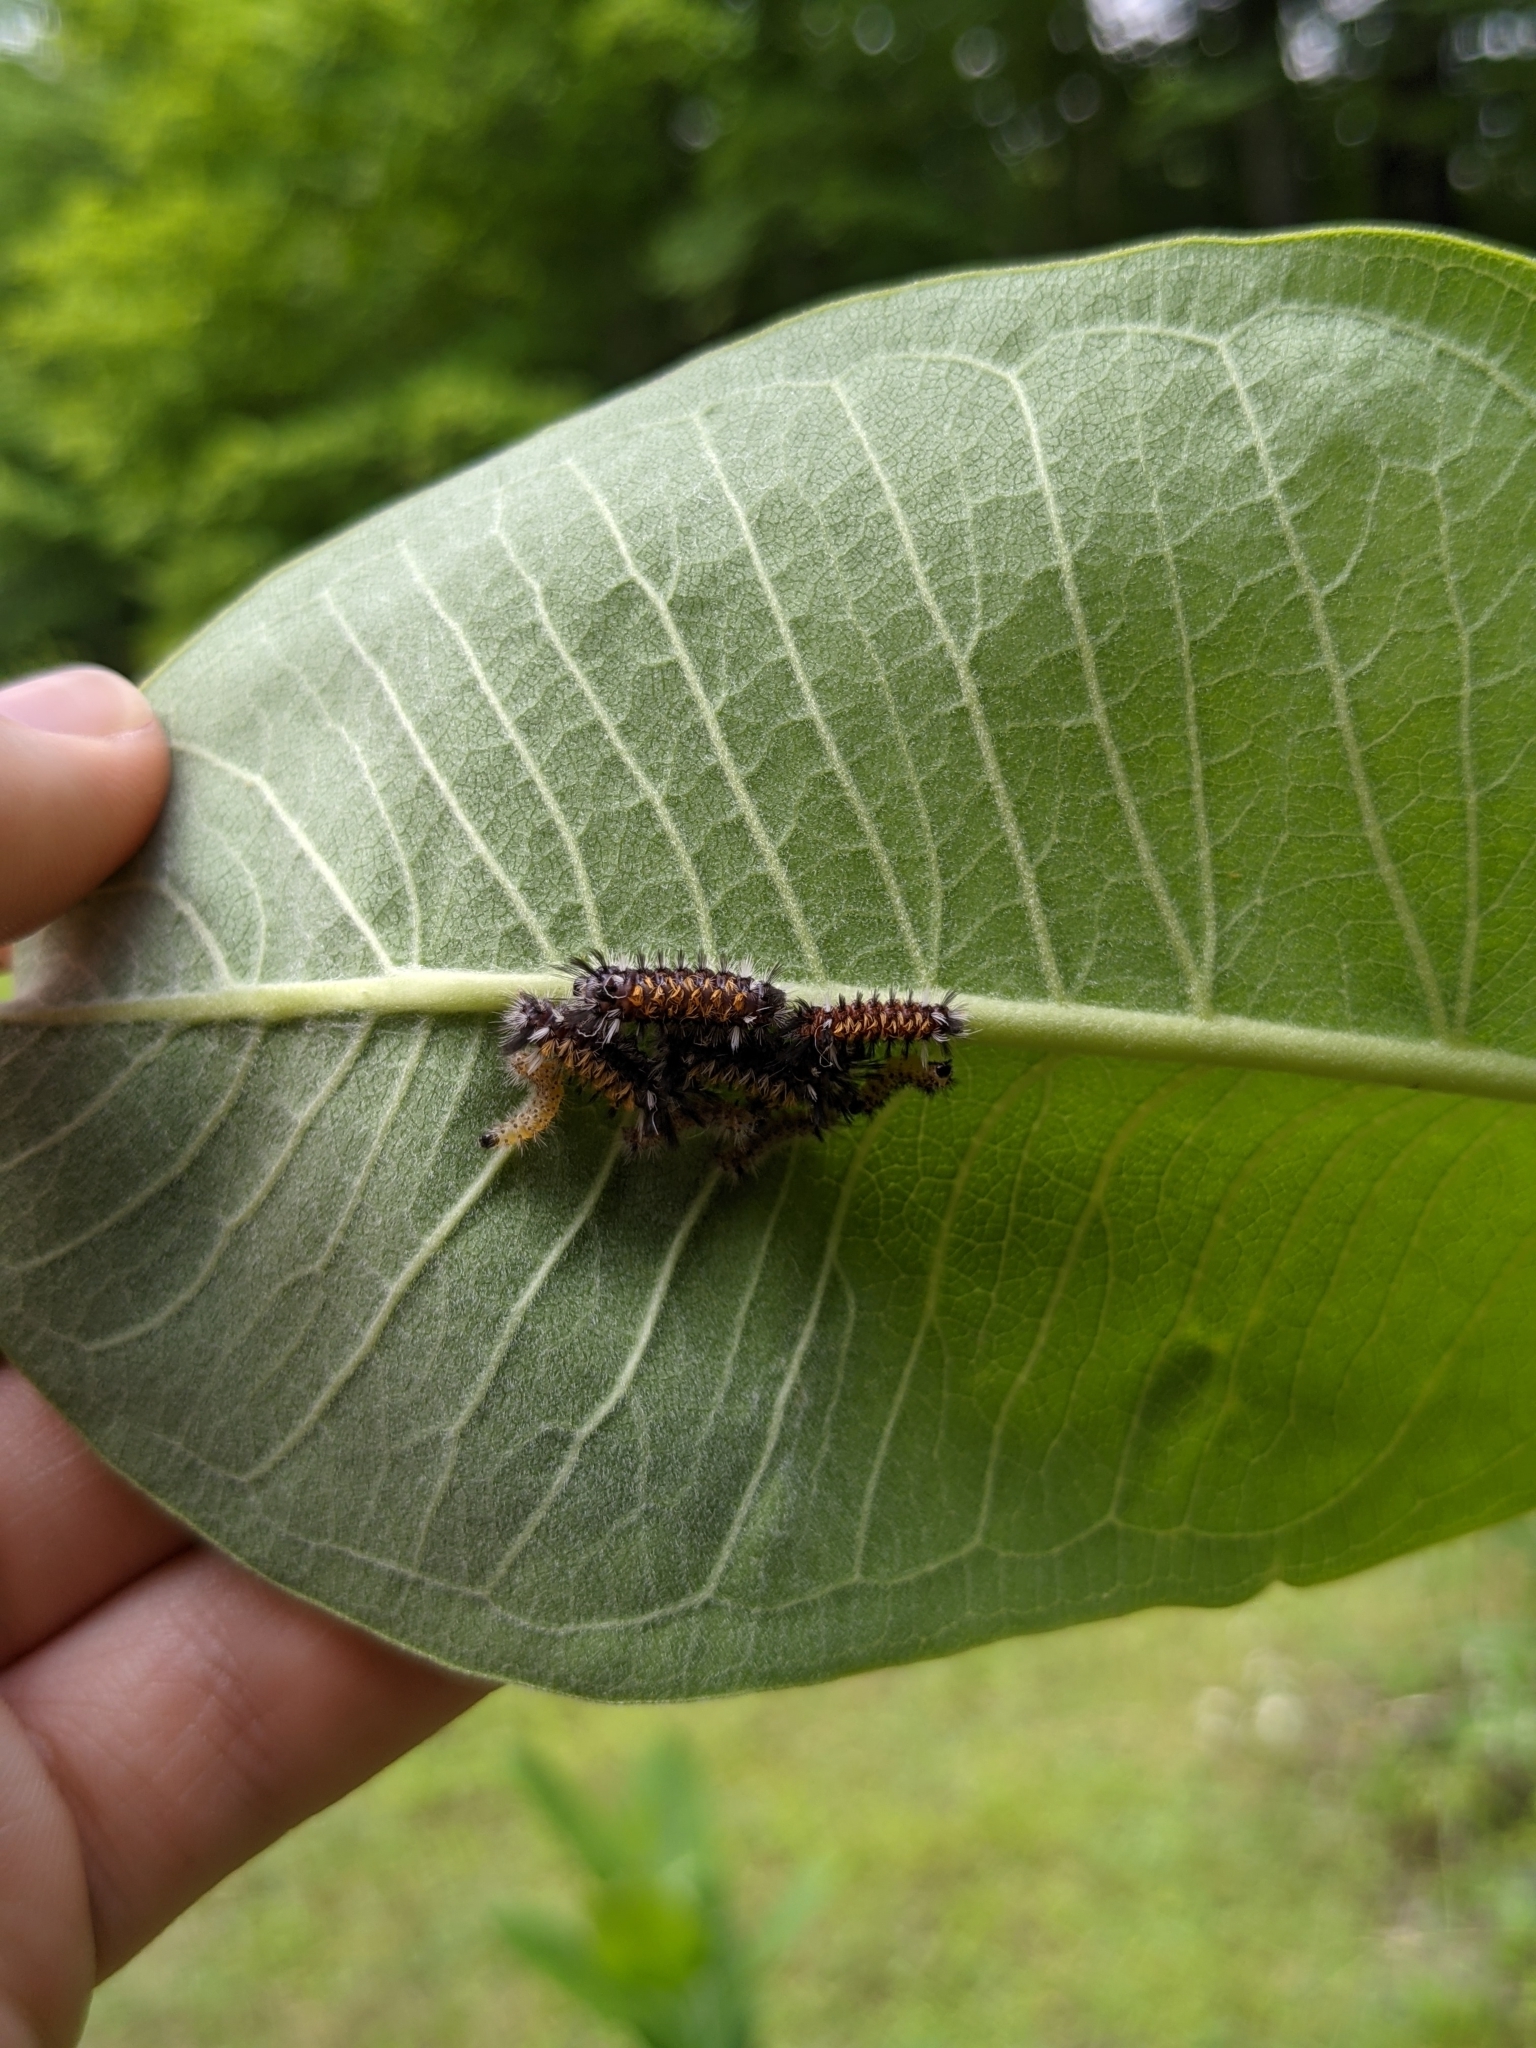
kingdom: Animalia
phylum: Arthropoda
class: Insecta
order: Lepidoptera
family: Erebidae
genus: Euchaetes
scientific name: Euchaetes egle
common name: Milkweed tussock moth
